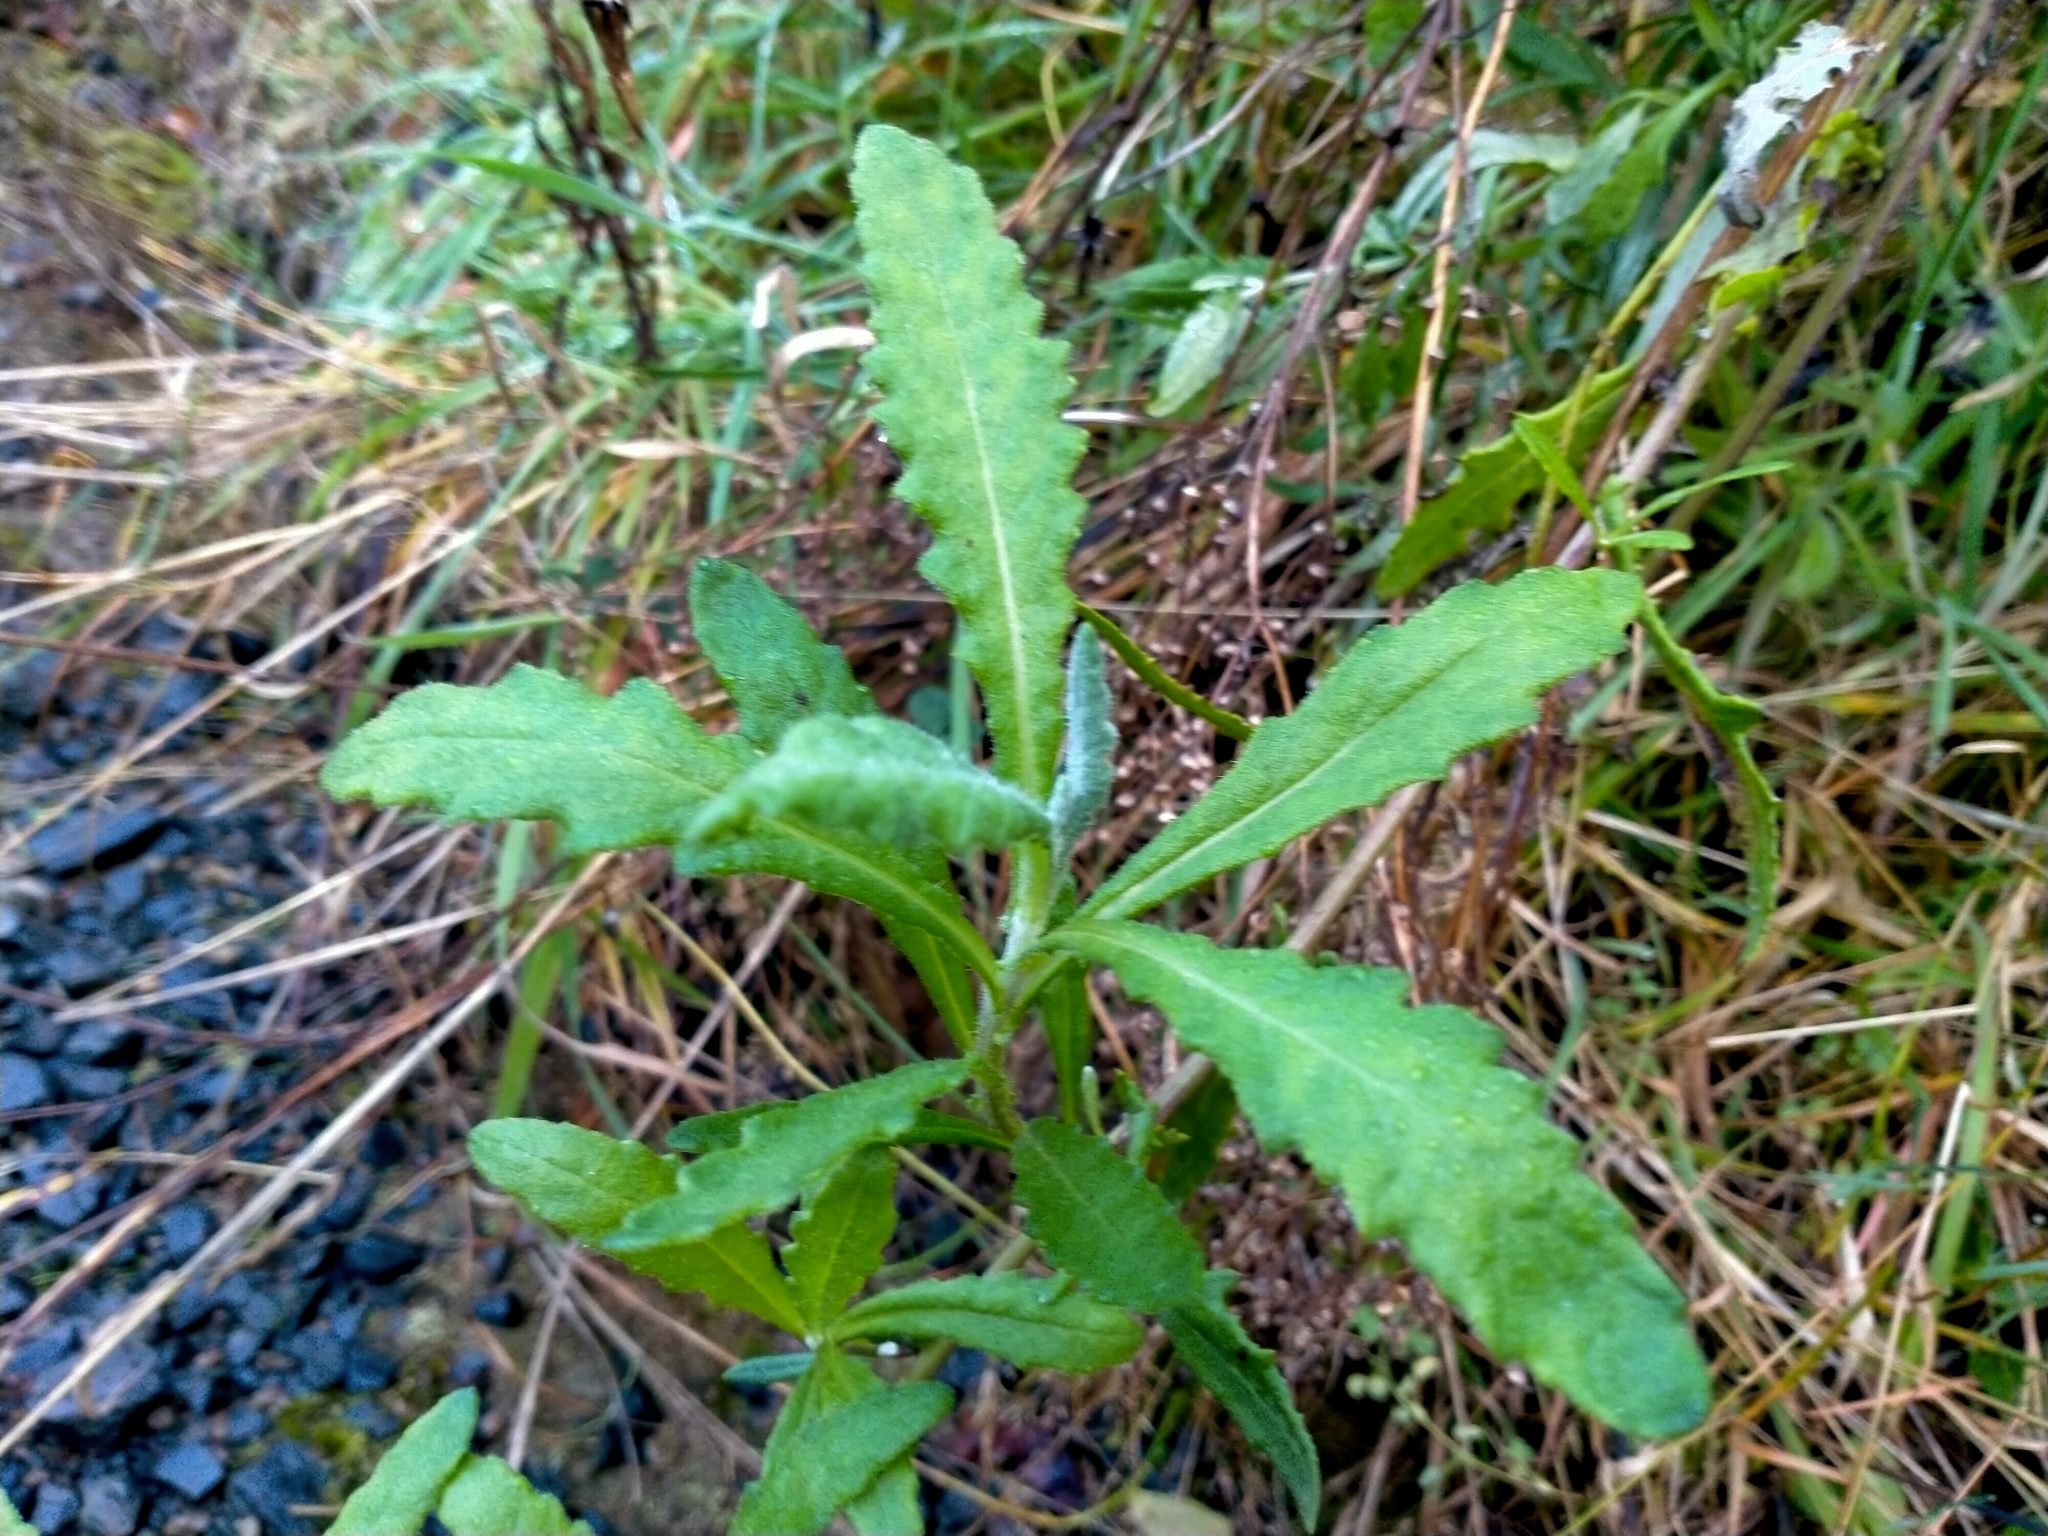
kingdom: Plantae
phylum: Tracheophyta
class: Magnoliopsida
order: Asterales
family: Asteraceae
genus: Senecio
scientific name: Senecio glomeratus
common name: Cutleaf burnweed
